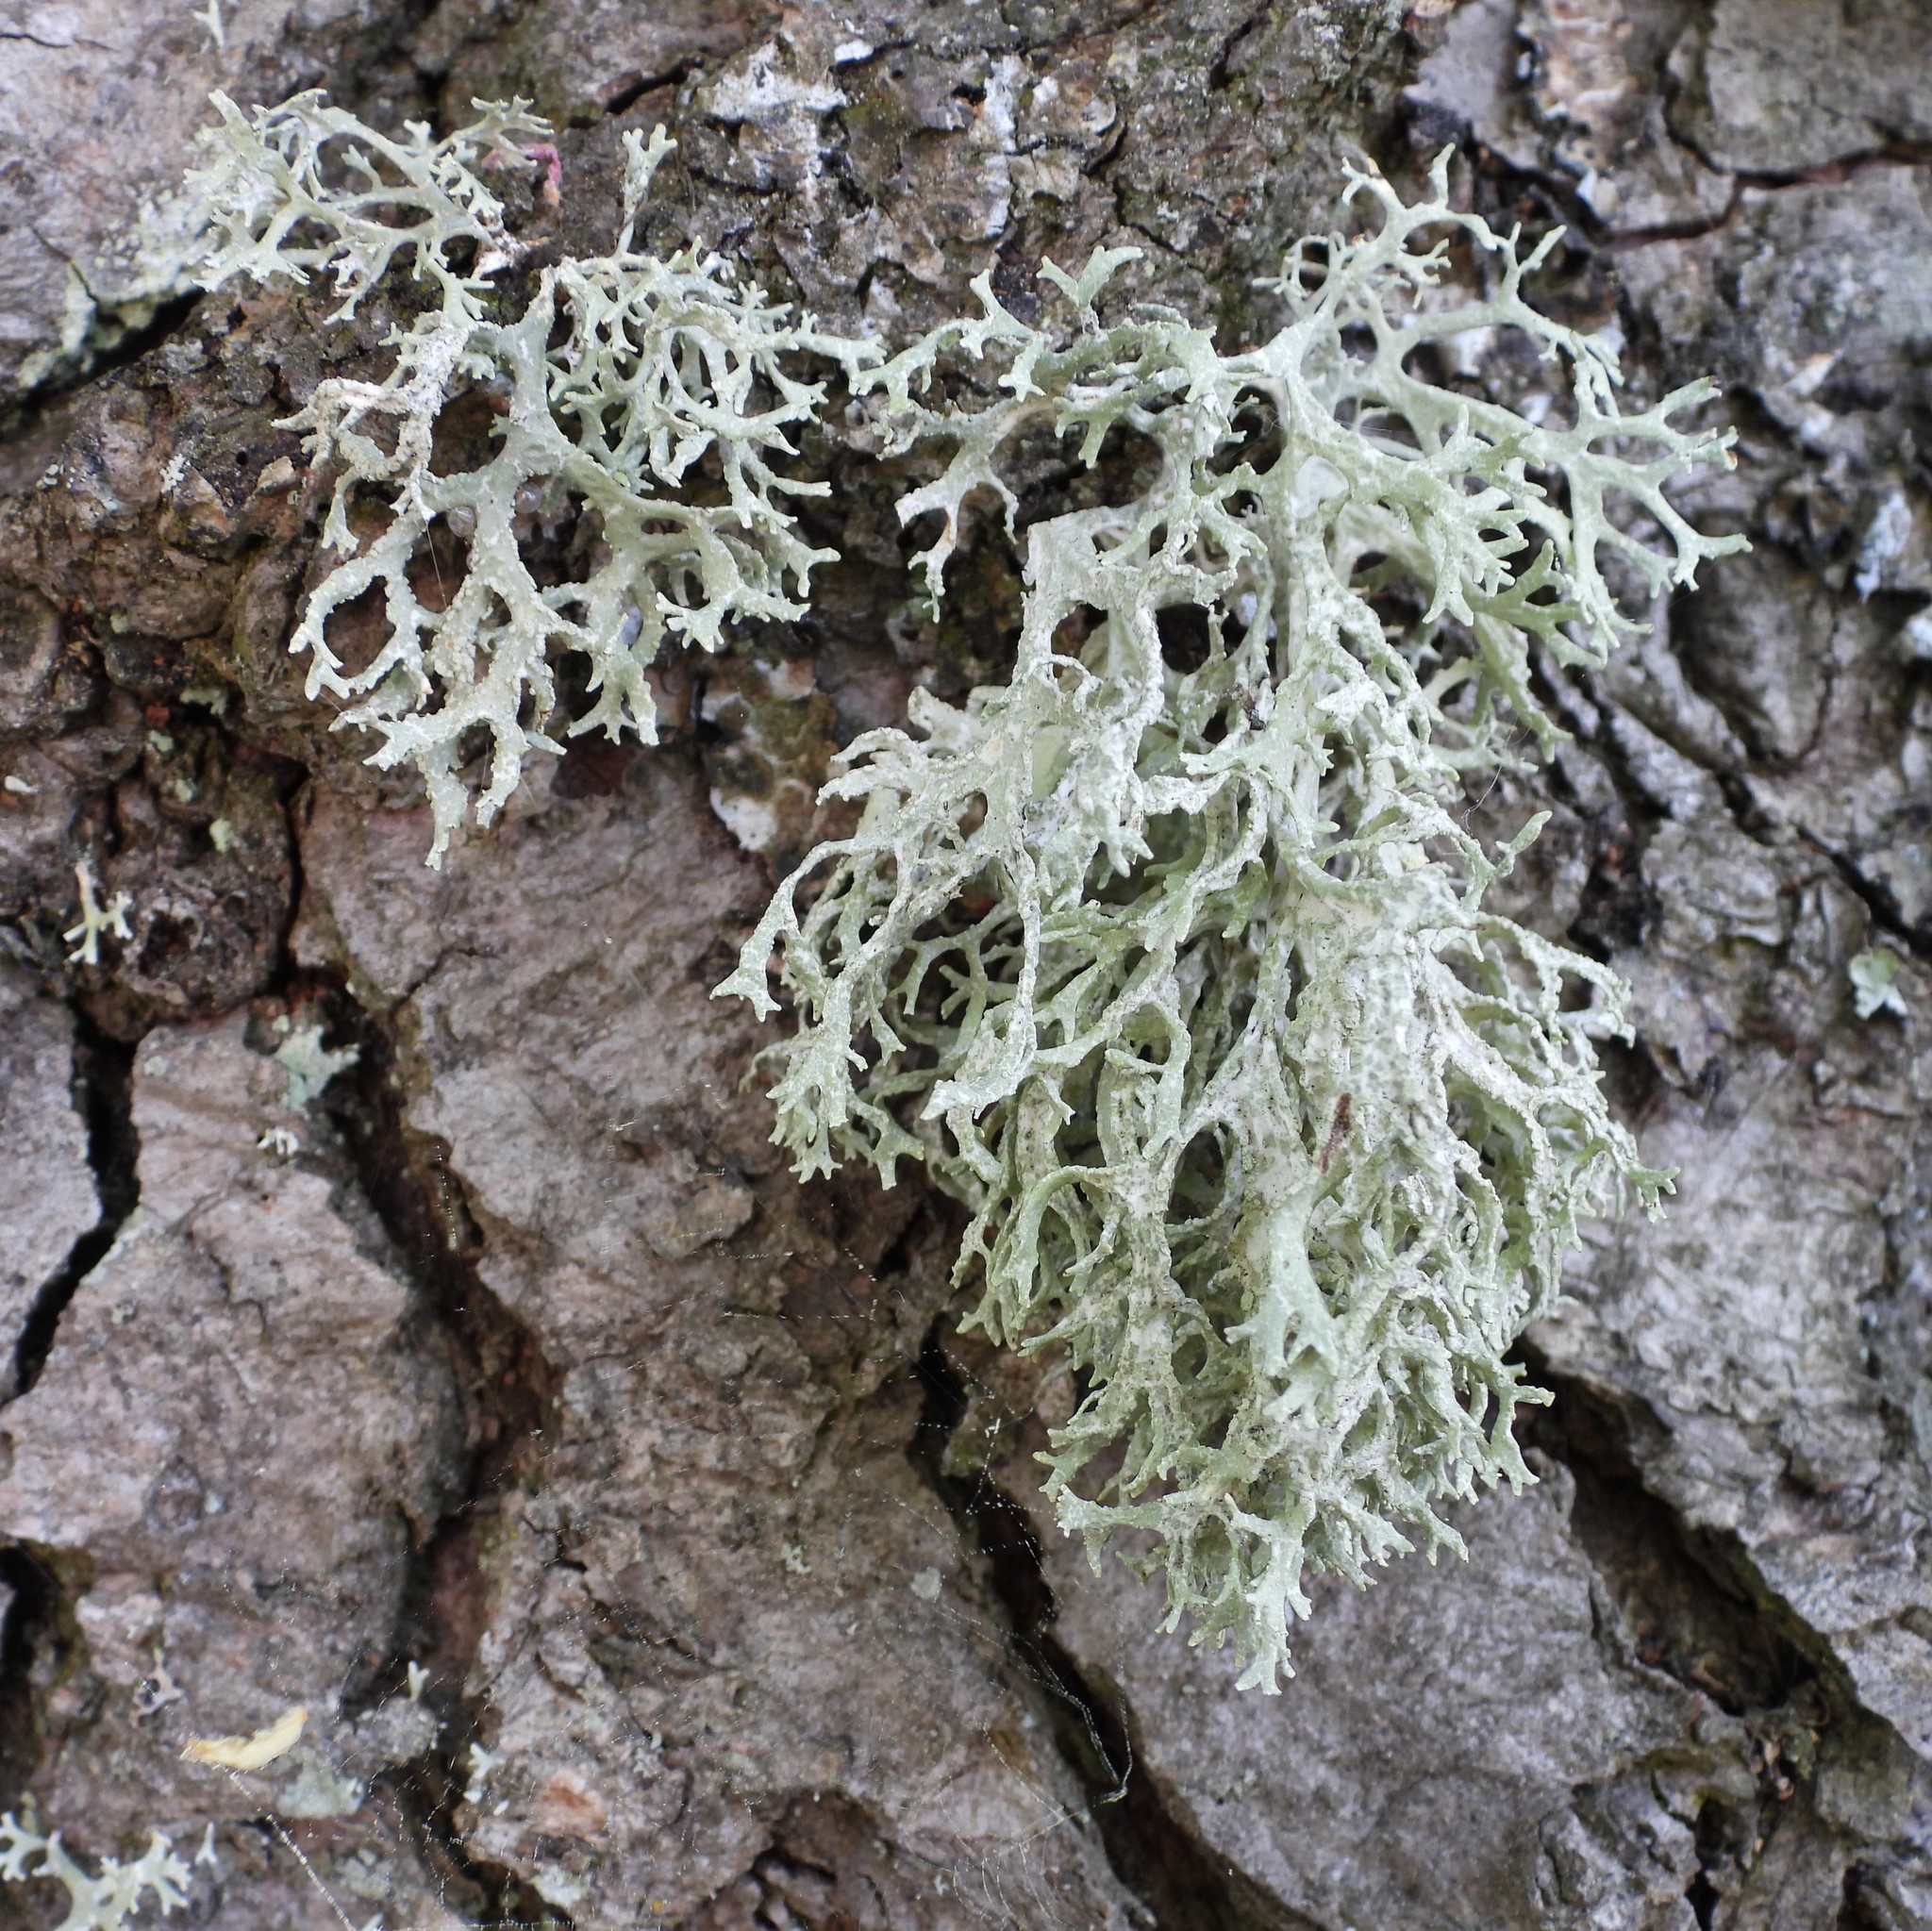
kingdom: Fungi
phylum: Ascomycota
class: Lecanoromycetes
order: Lecanorales
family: Parmeliaceae
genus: Evernia
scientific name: Evernia prunastri
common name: Oak moss
